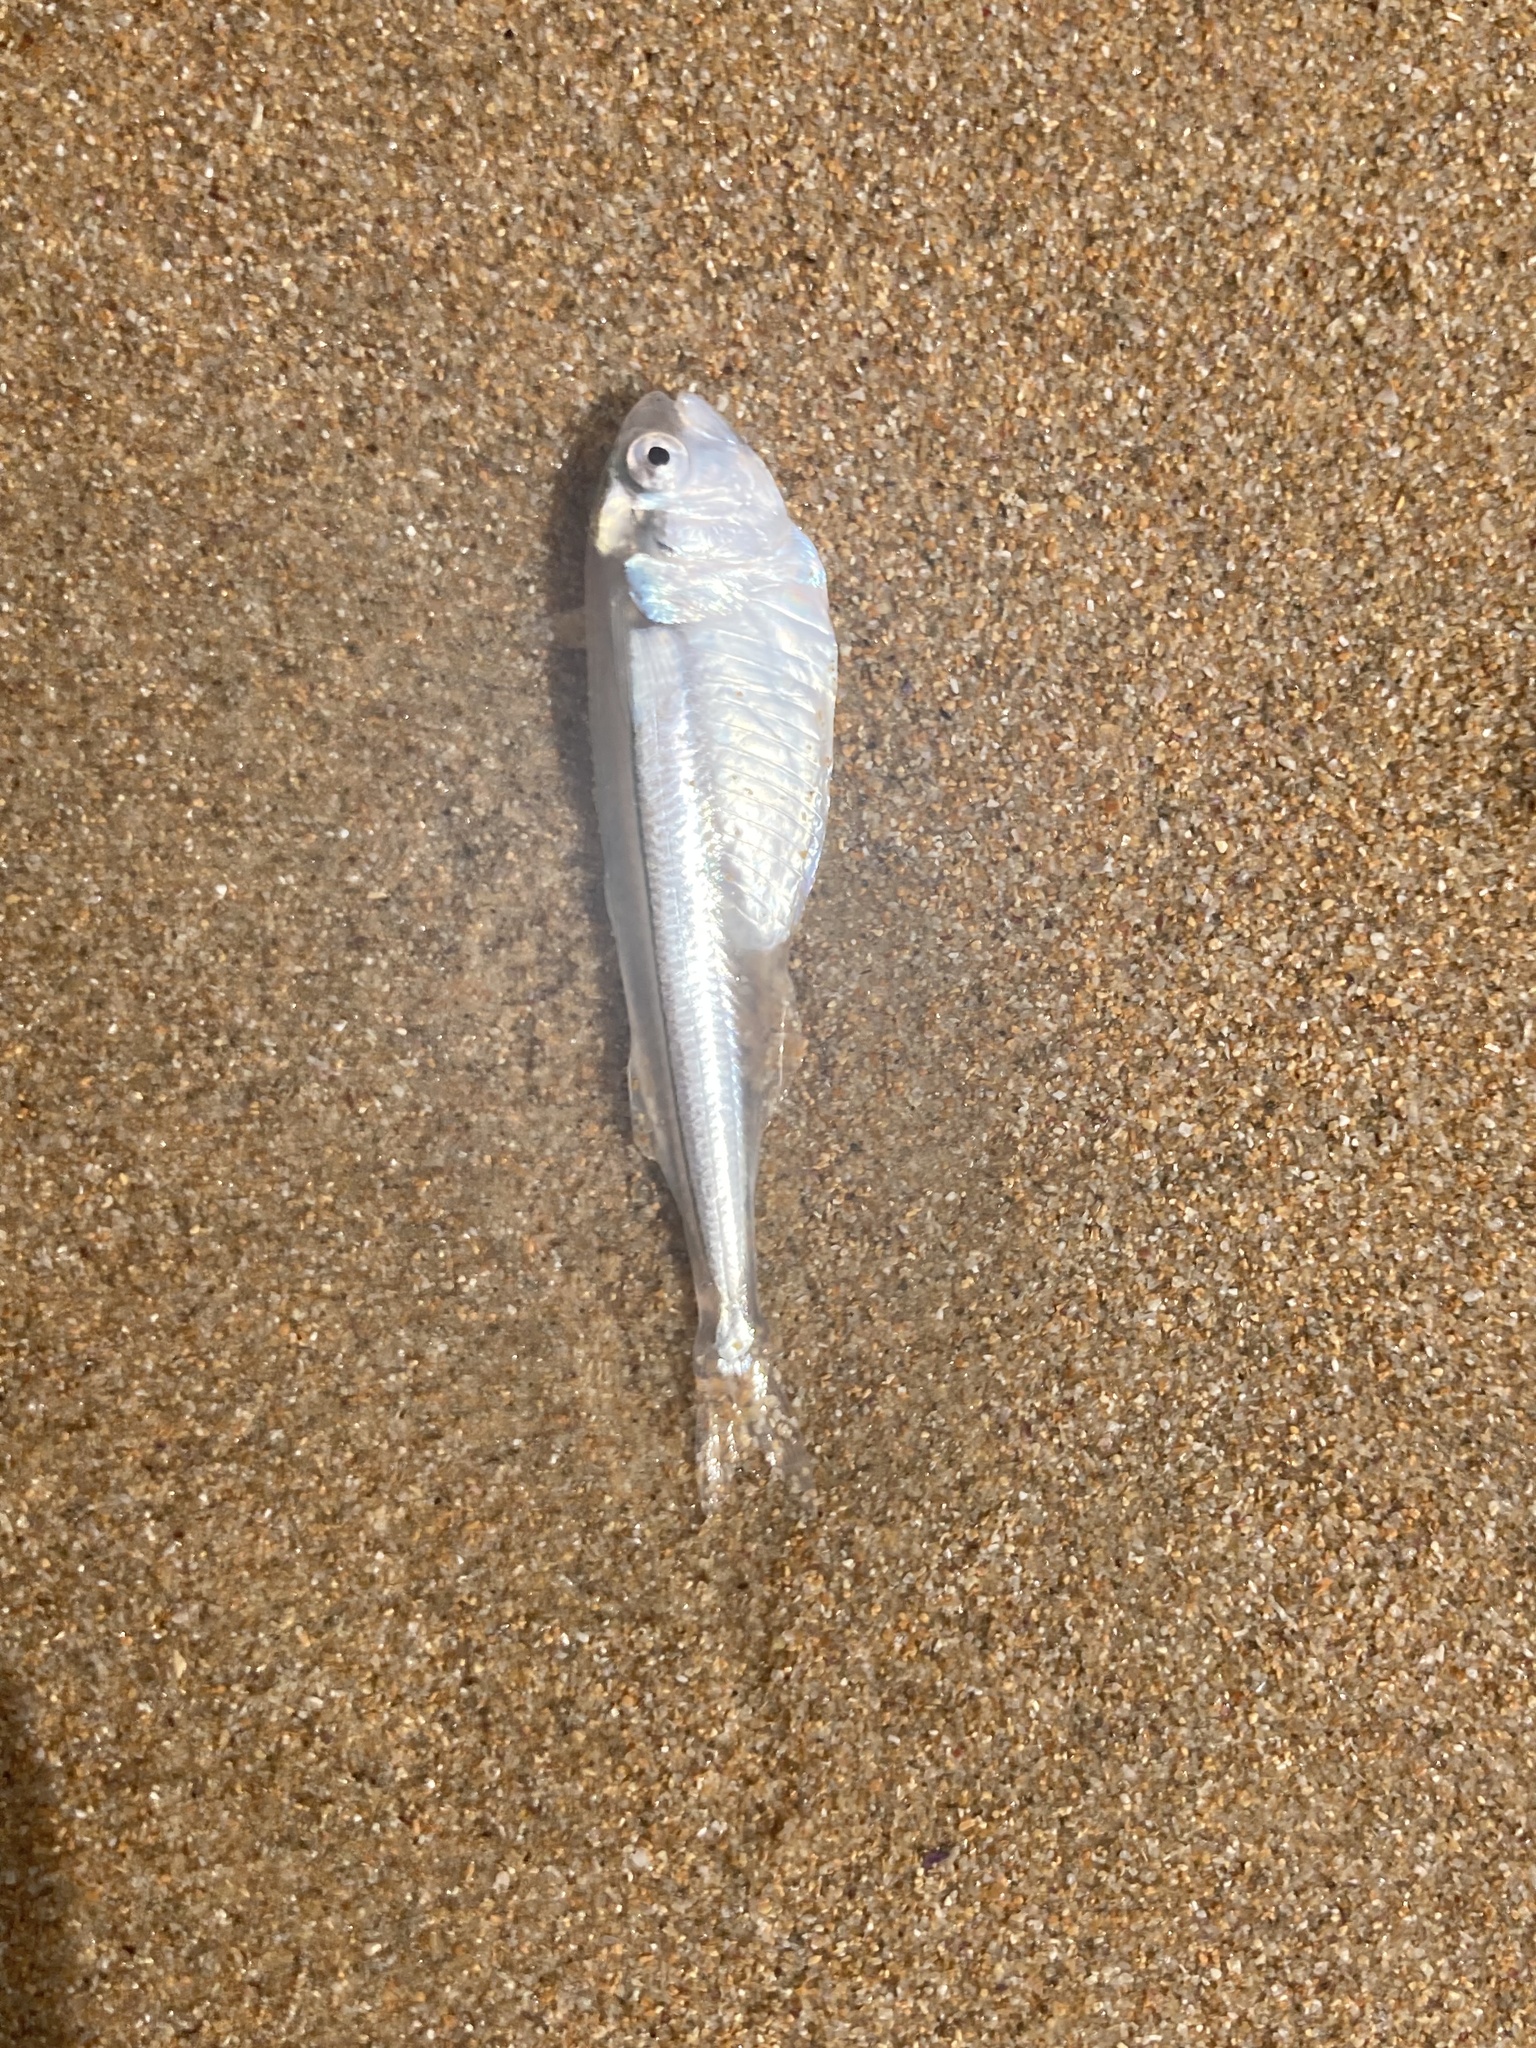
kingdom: Animalia
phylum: Chordata
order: Atheriniformes
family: Isonidae
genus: Iso
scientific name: Iso rhothophilus
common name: Flower of the wave
